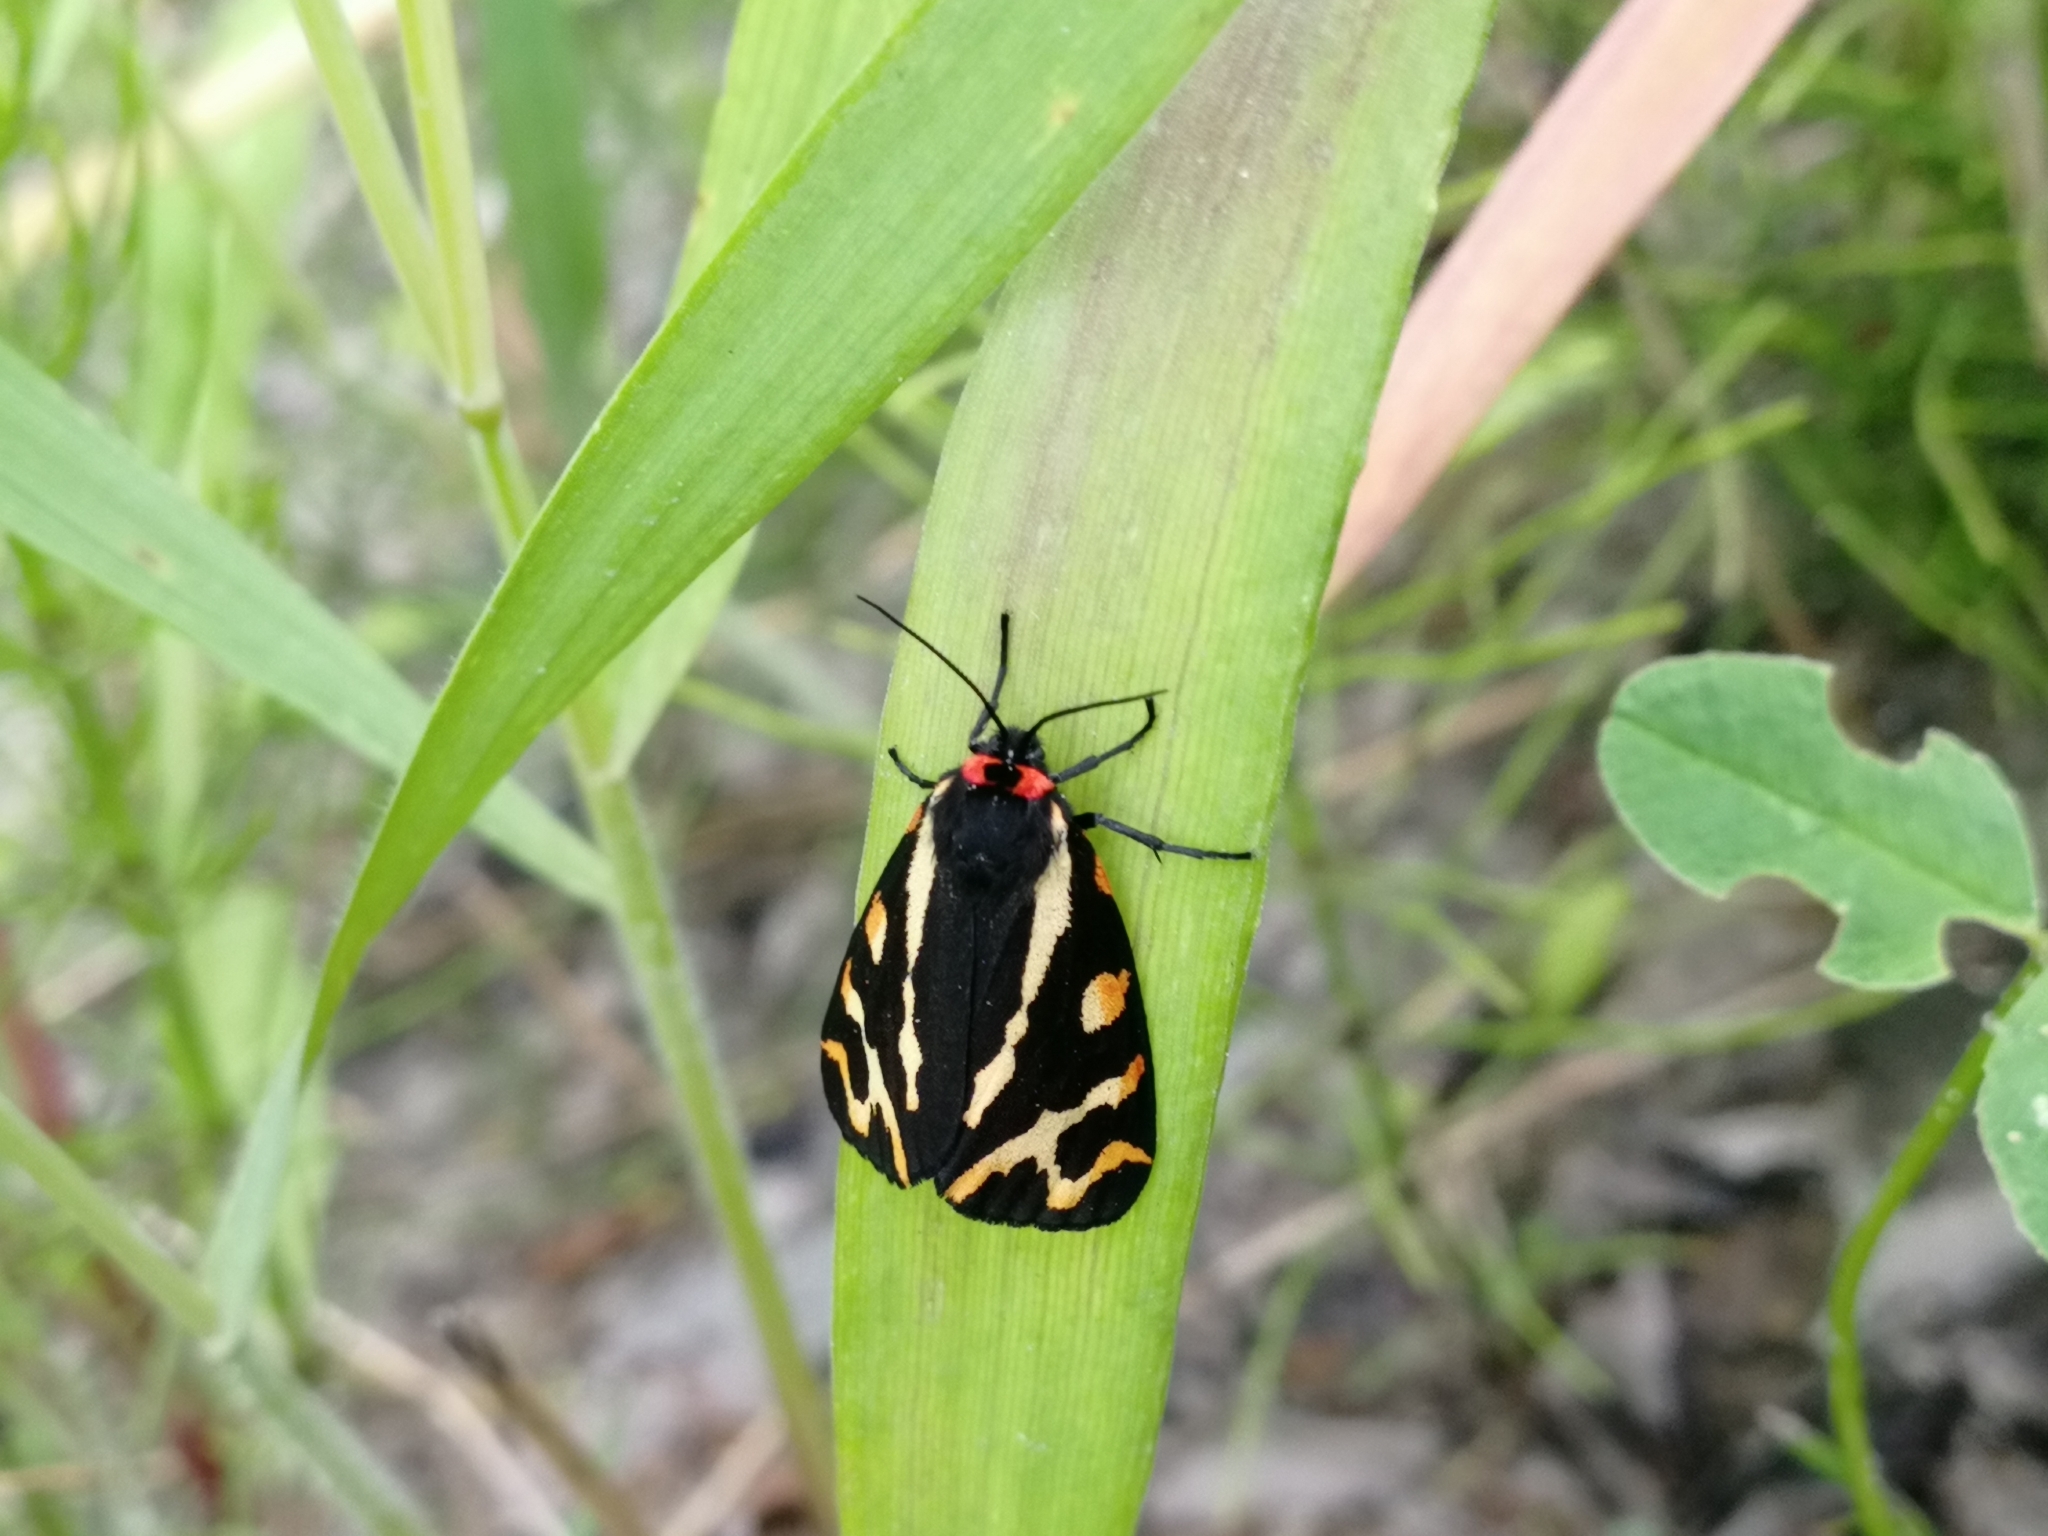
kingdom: Animalia
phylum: Arthropoda
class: Insecta
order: Lepidoptera
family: Erebidae
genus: Parasemia
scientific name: Parasemia plantaginis
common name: Wood tiger
